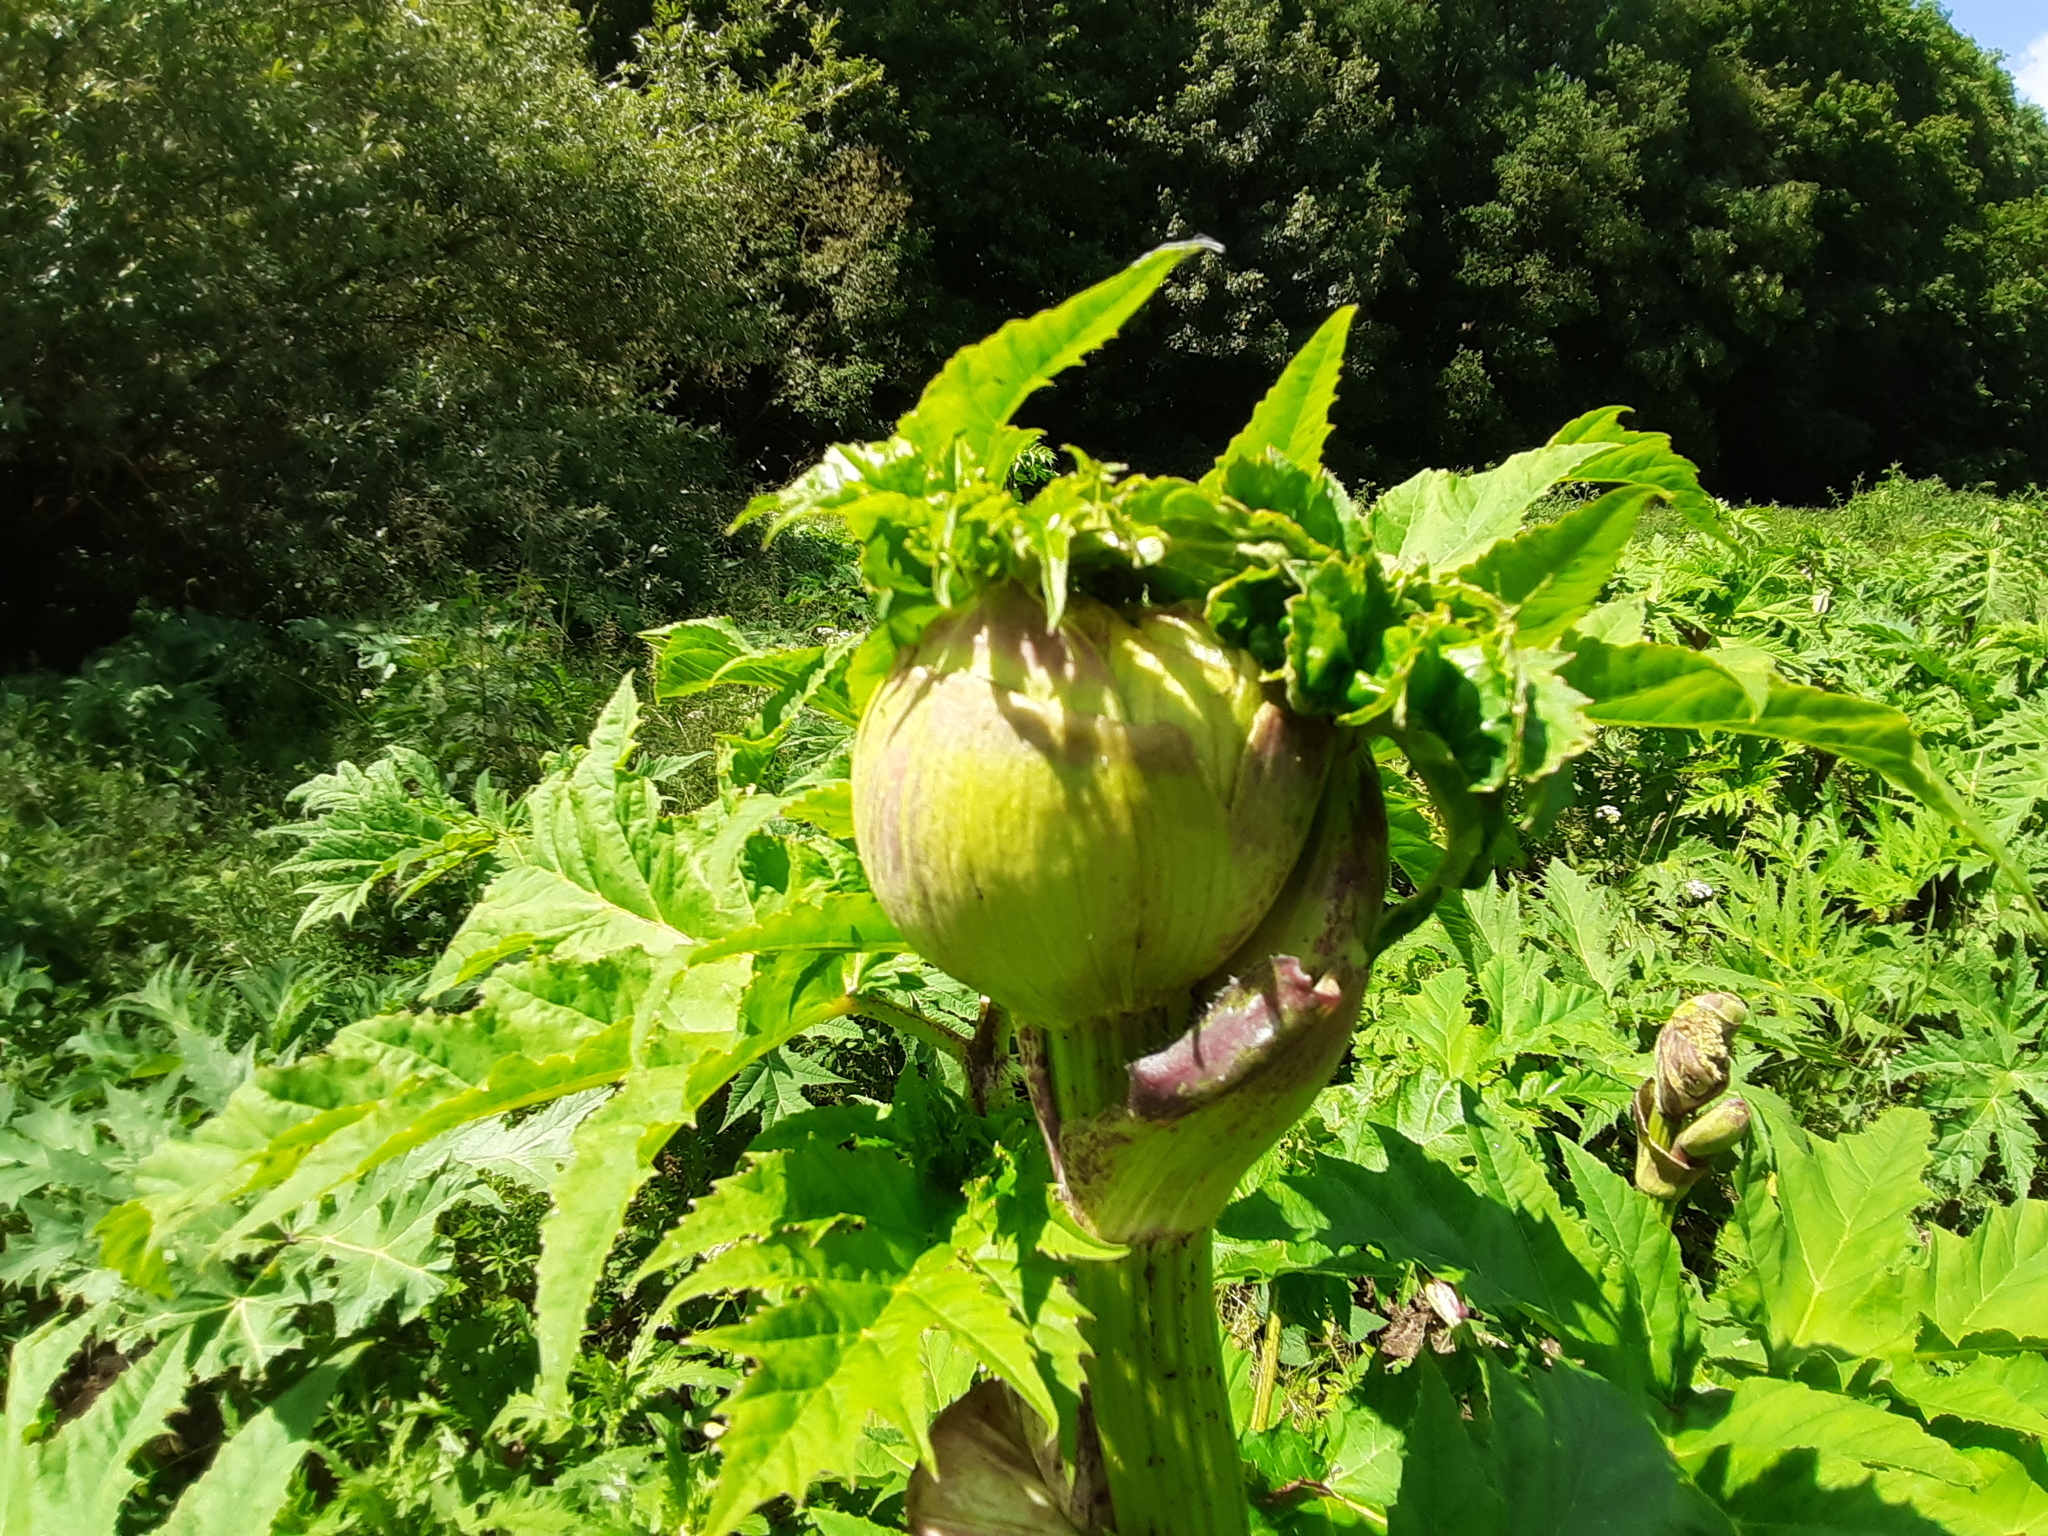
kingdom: Plantae
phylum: Tracheophyta
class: Magnoliopsida
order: Apiales
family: Apiaceae
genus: Heracleum
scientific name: Heracleum mantegazzianum
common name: Giant hogweed
